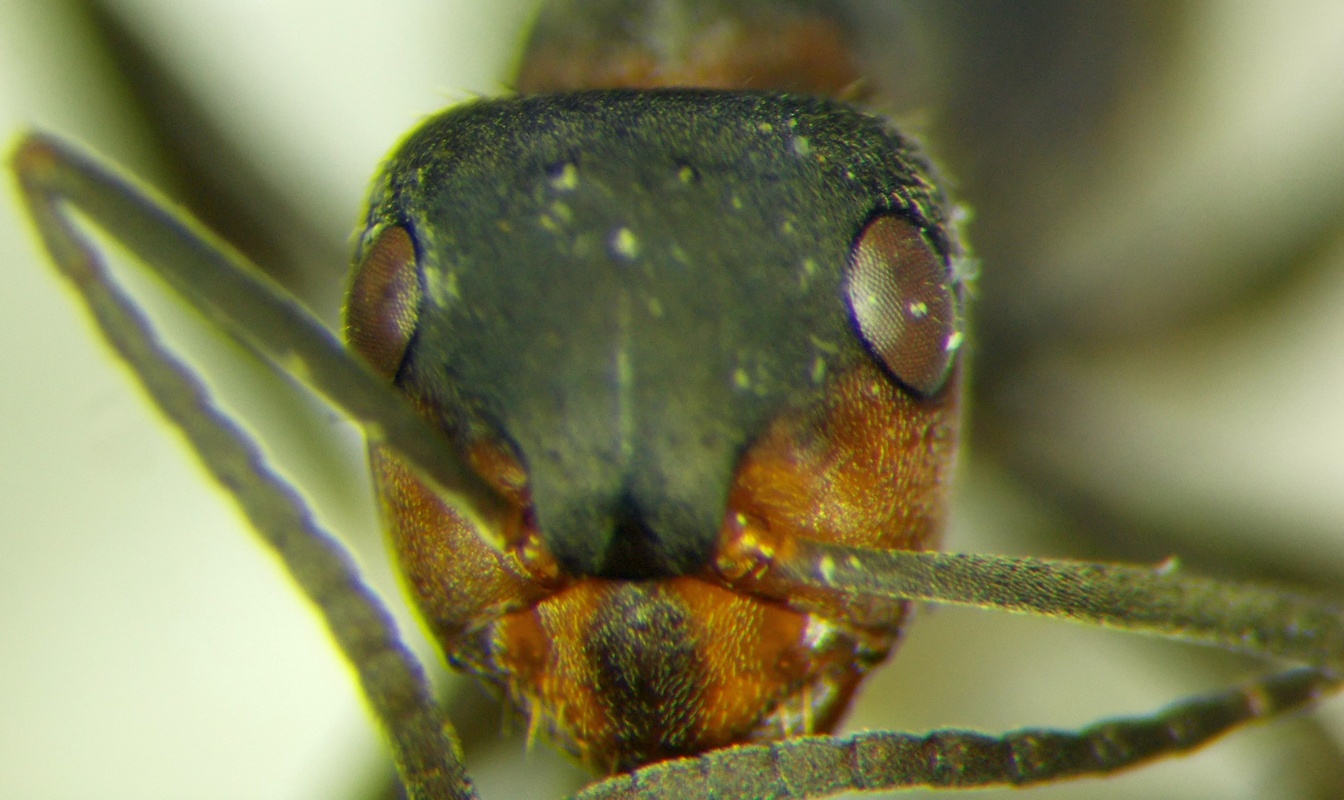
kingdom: Animalia
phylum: Arthropoda
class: Insecta
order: Hymenoptera
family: Formicidae
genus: Formica
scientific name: Formica pratensis
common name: European red wood ant
